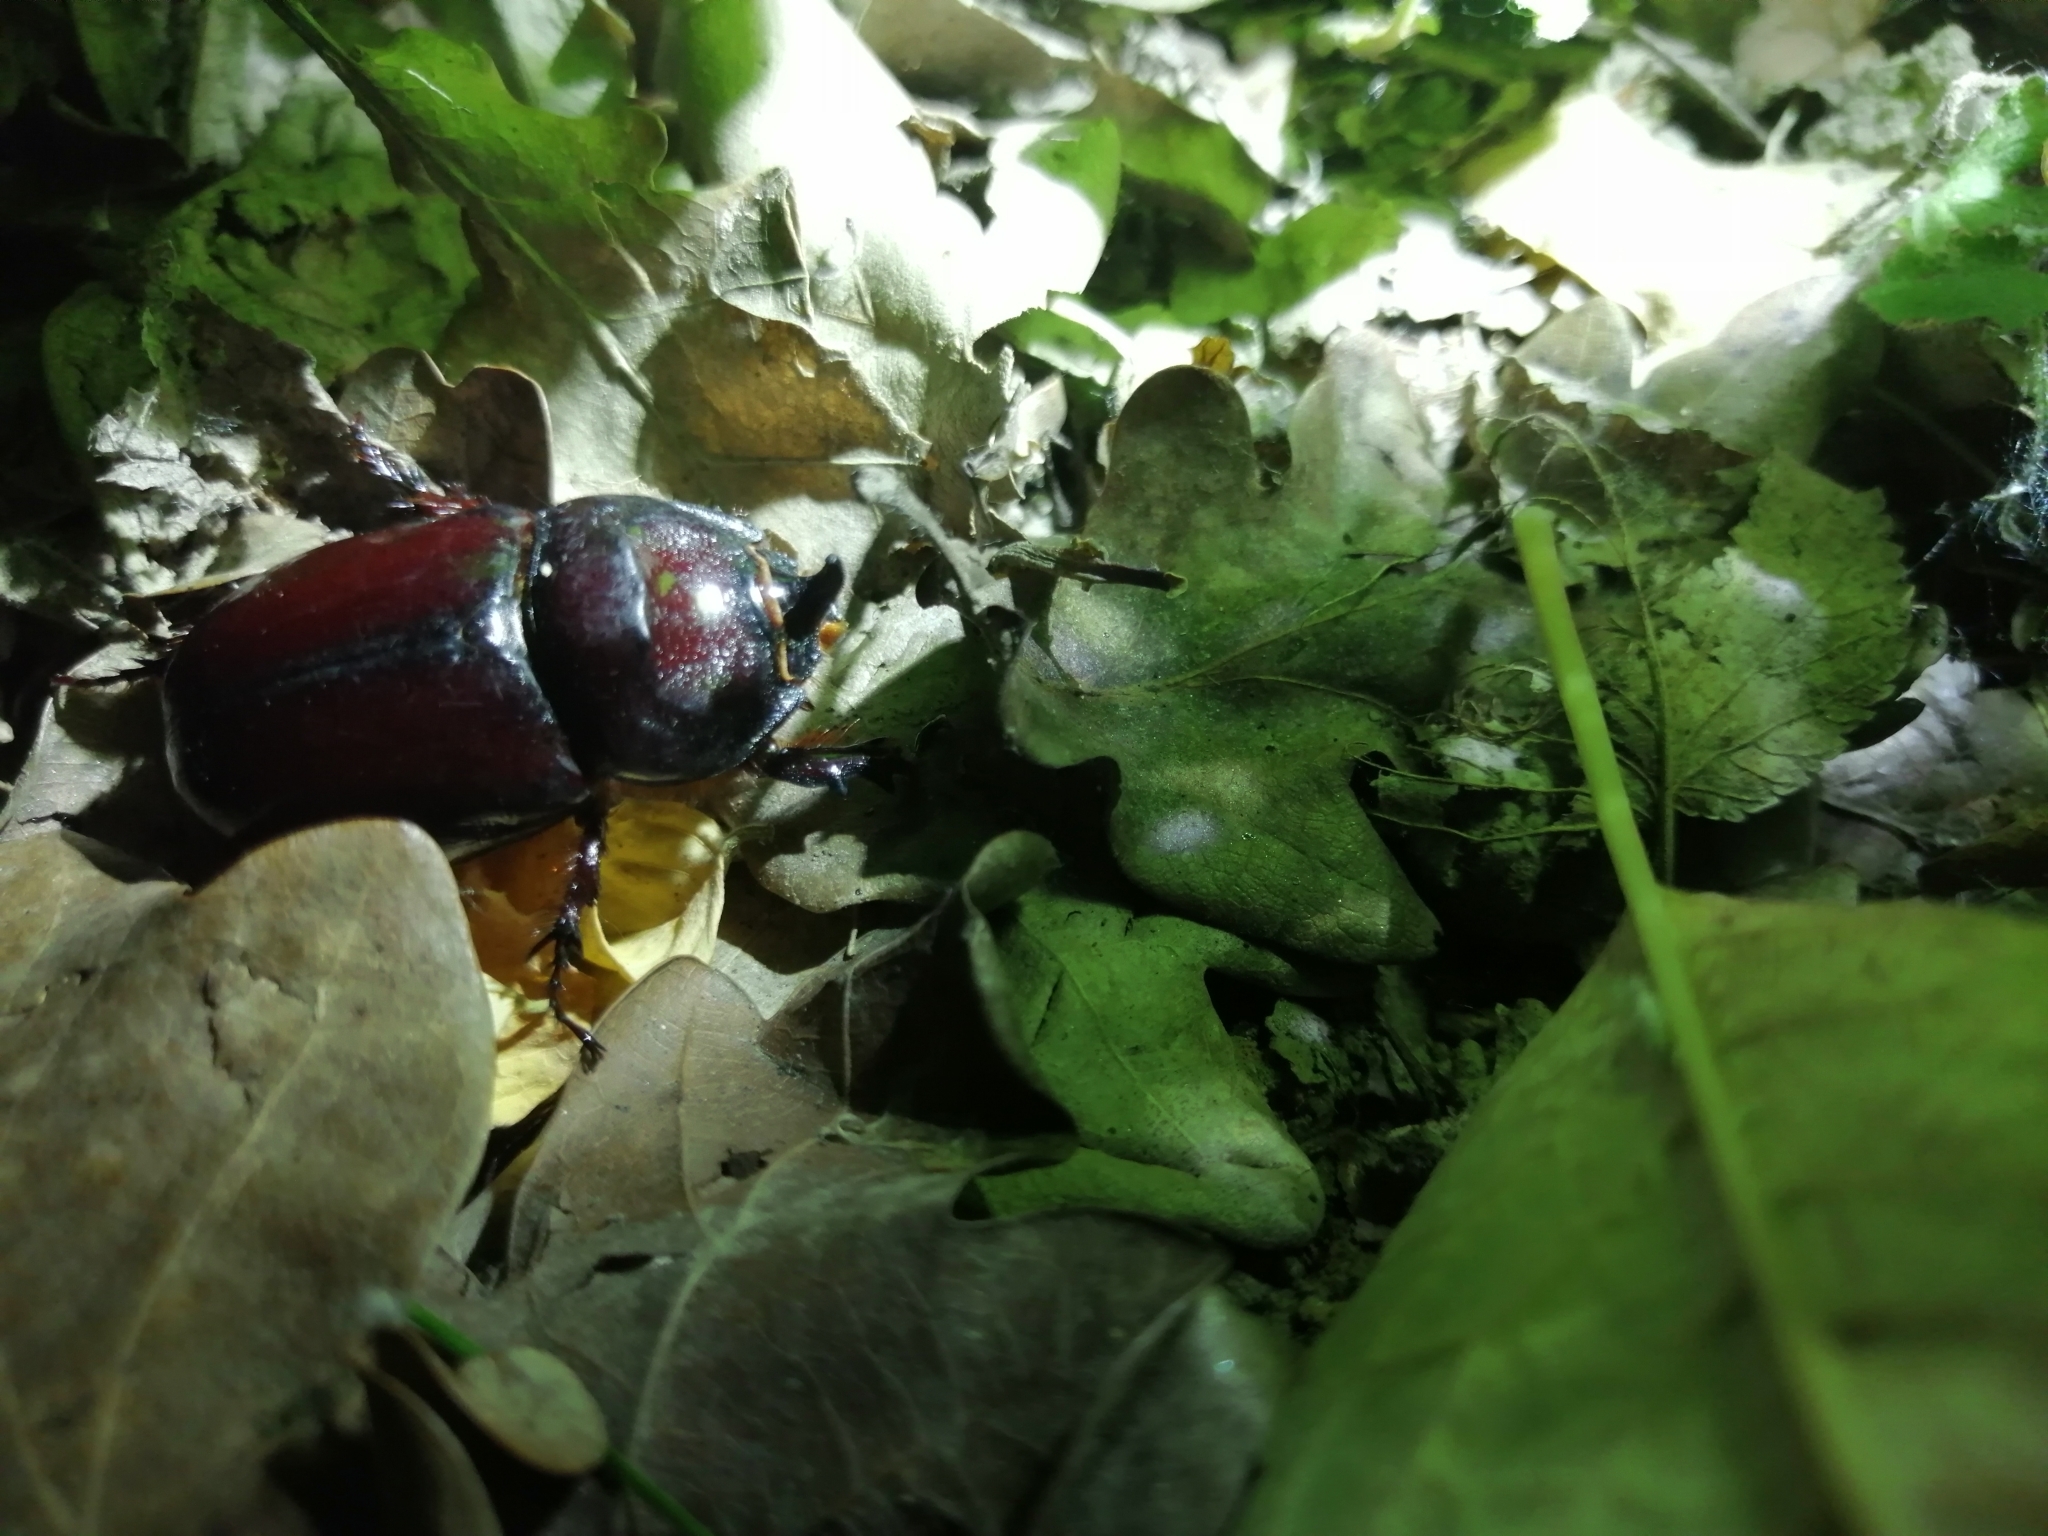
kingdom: Animalia
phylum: Arthropoda
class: Insecta
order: Coleoptera
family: Scarabaeidae
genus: Oryctes
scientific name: Oryctes nasicornis
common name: European rhinoceros beetle
